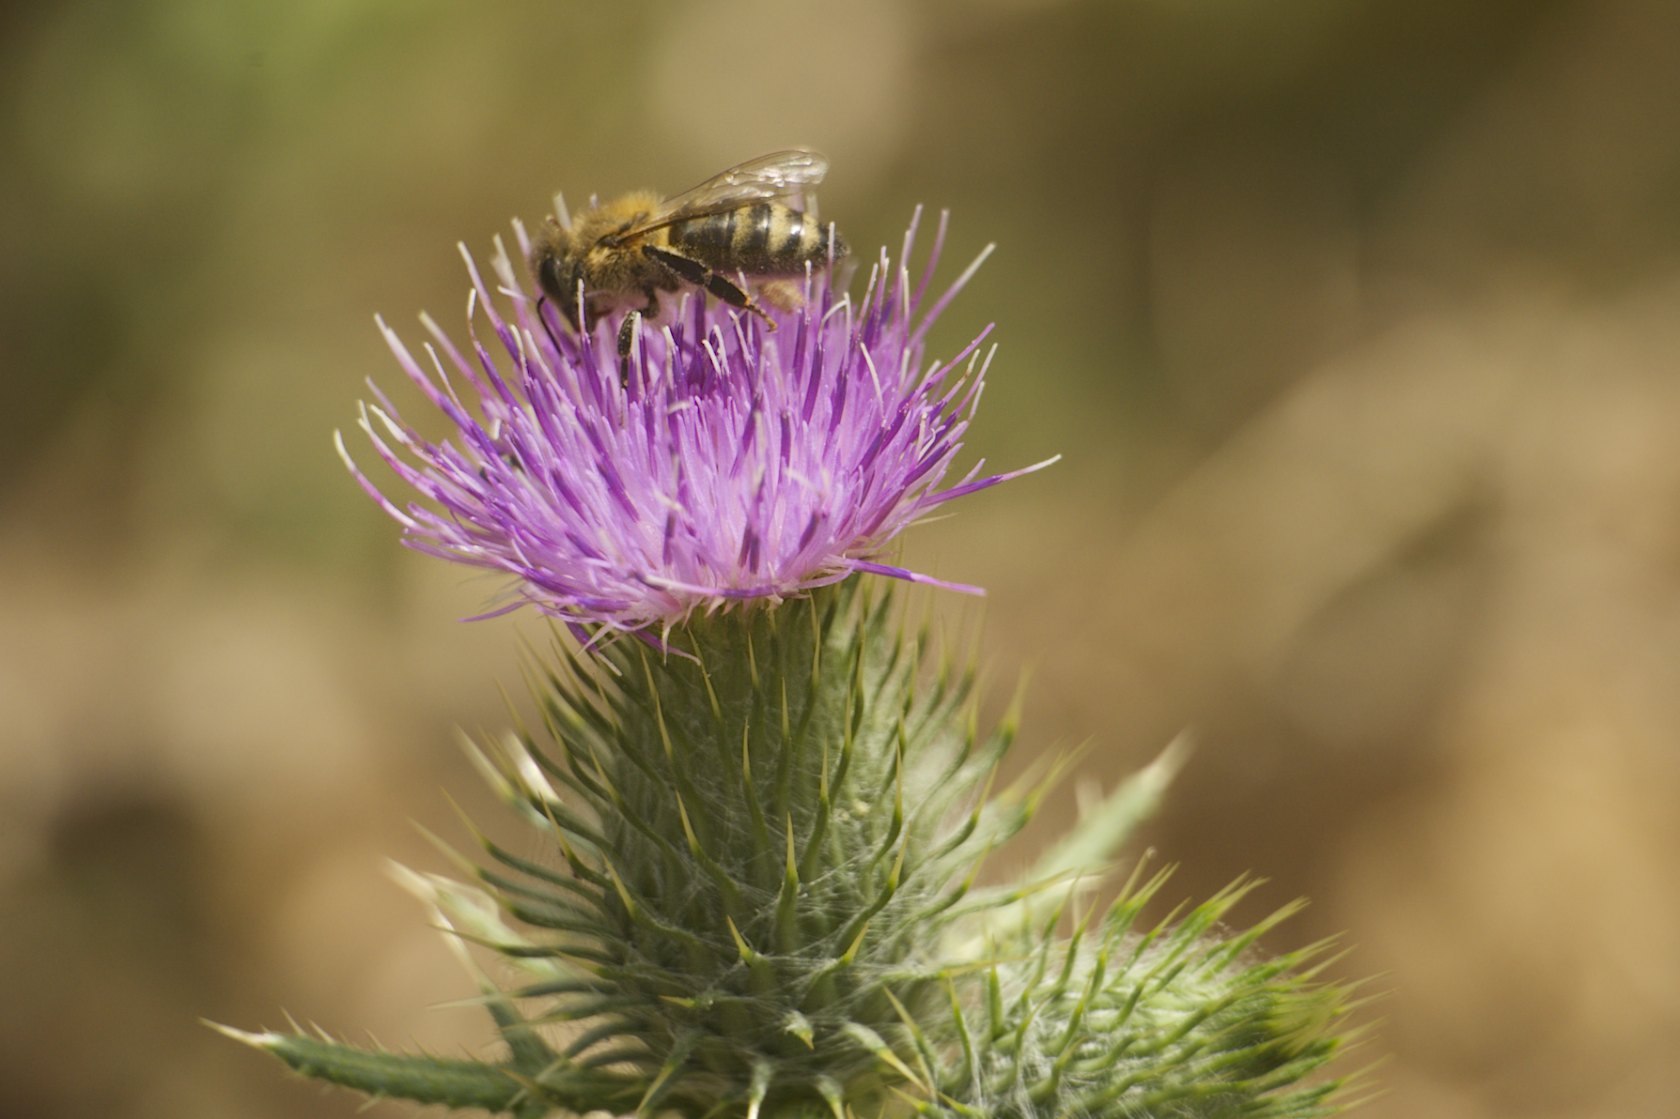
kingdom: Animalia
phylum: Arthropoda
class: Insecta
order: Hymenoptera
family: Apidae
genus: Apis
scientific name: Apis mellifera
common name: Honey bee
